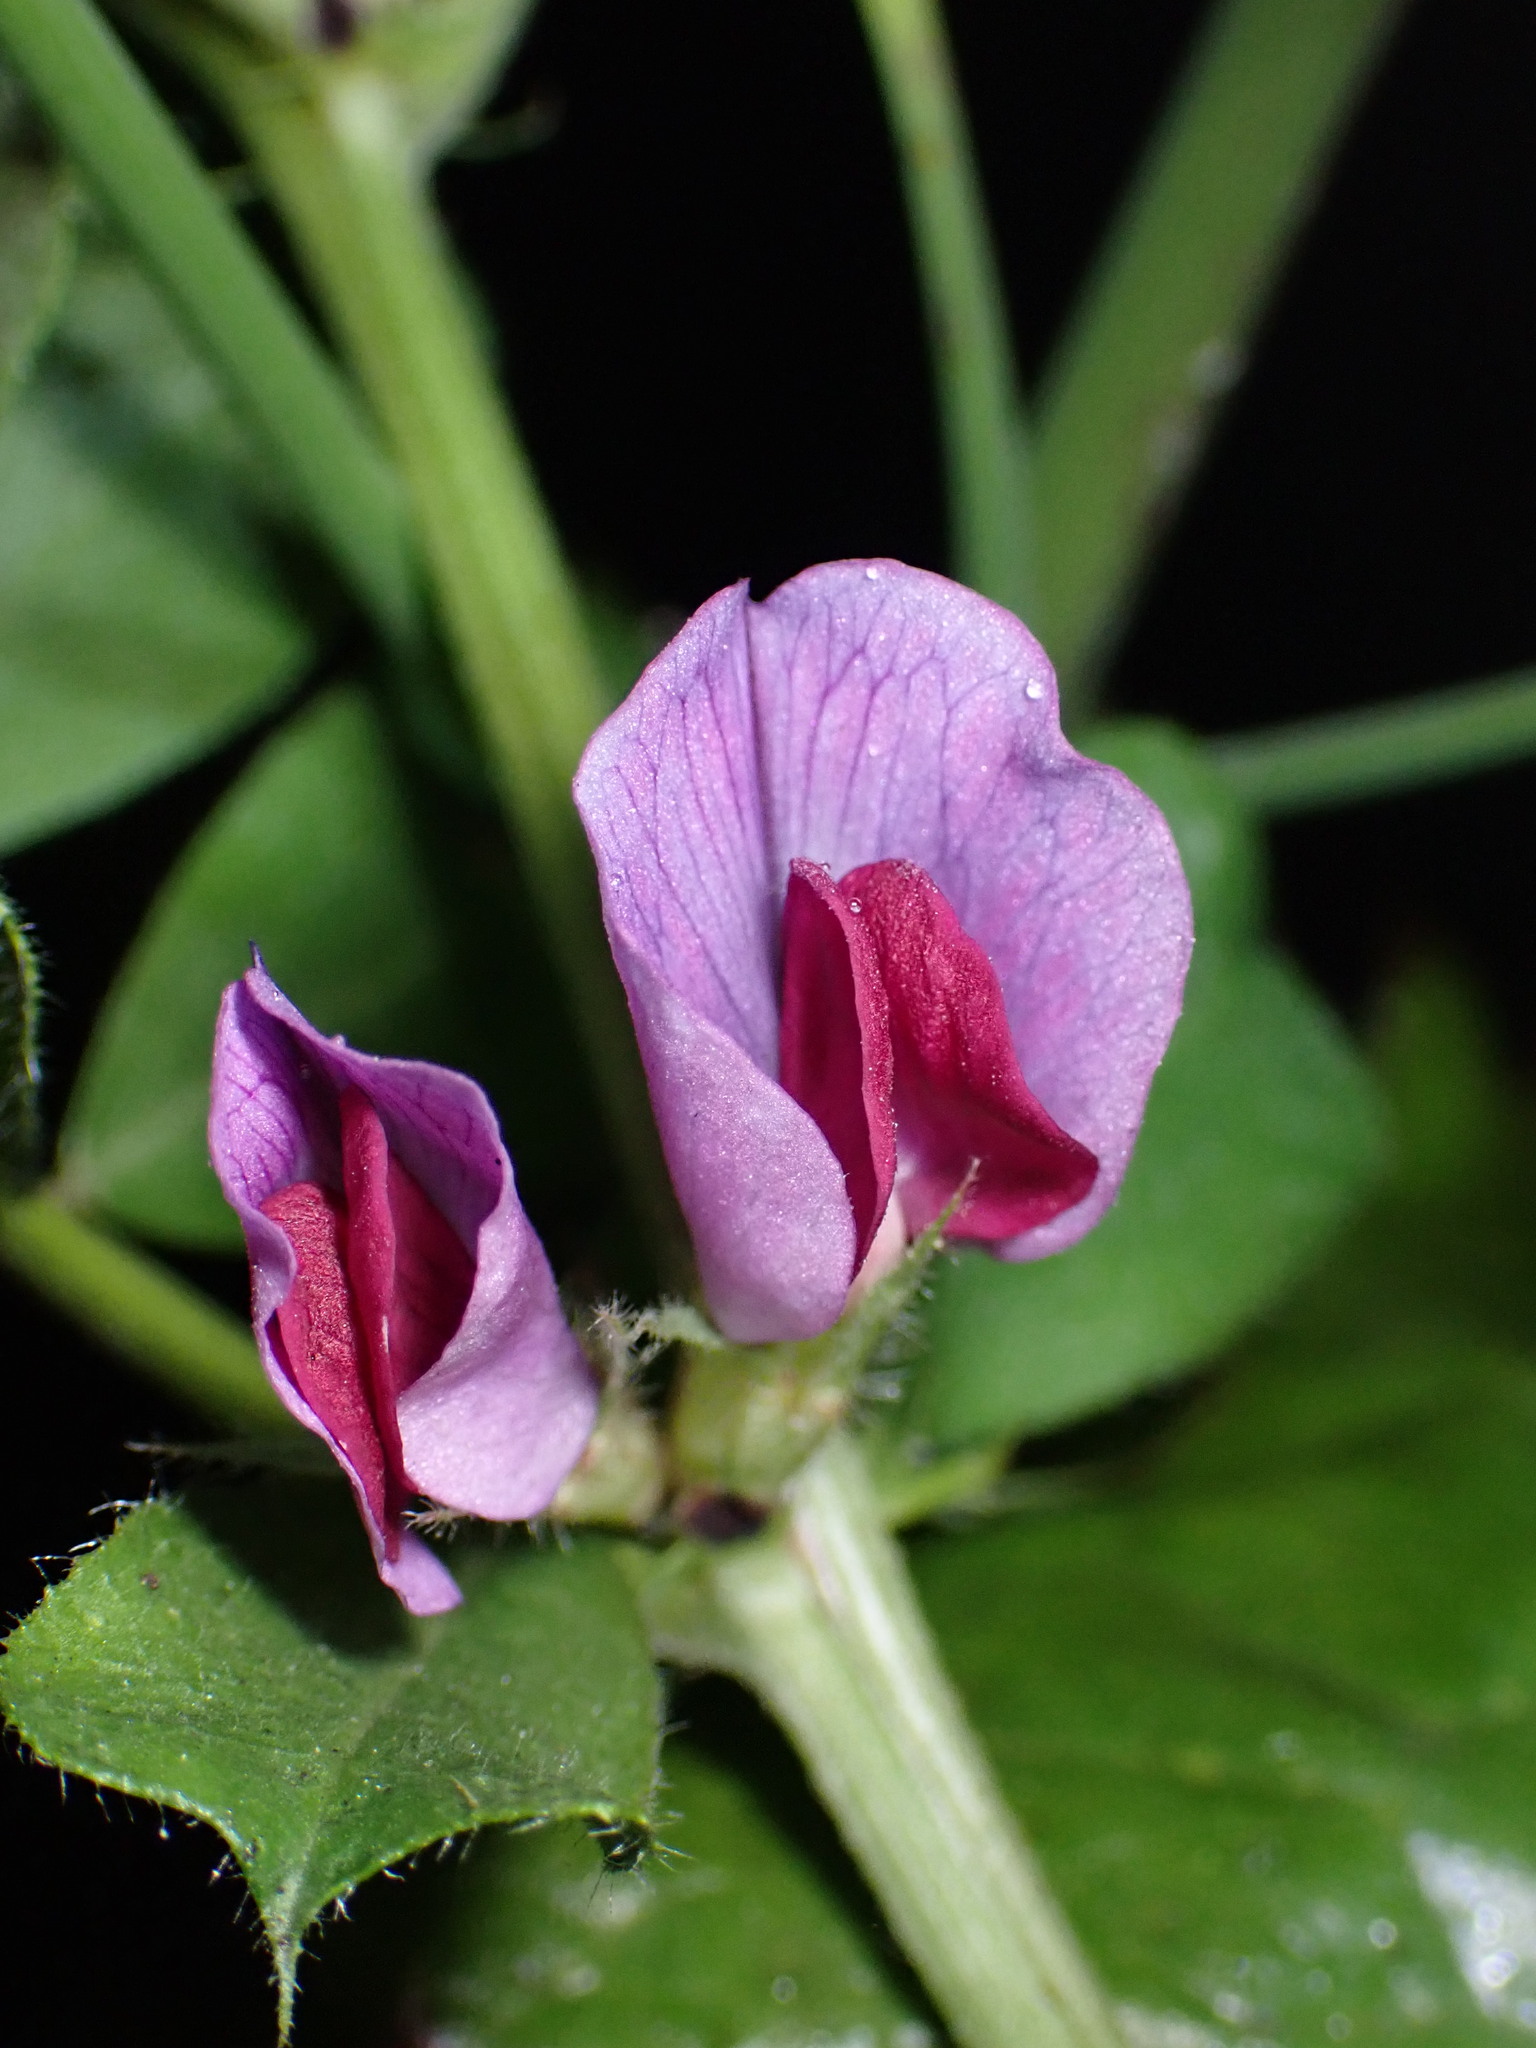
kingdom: Plantae
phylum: Tracheophyta
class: Magnoliopsida
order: Fabales
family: Fabaceae
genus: Vicia
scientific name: Vicia sativa
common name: Garden vetch
